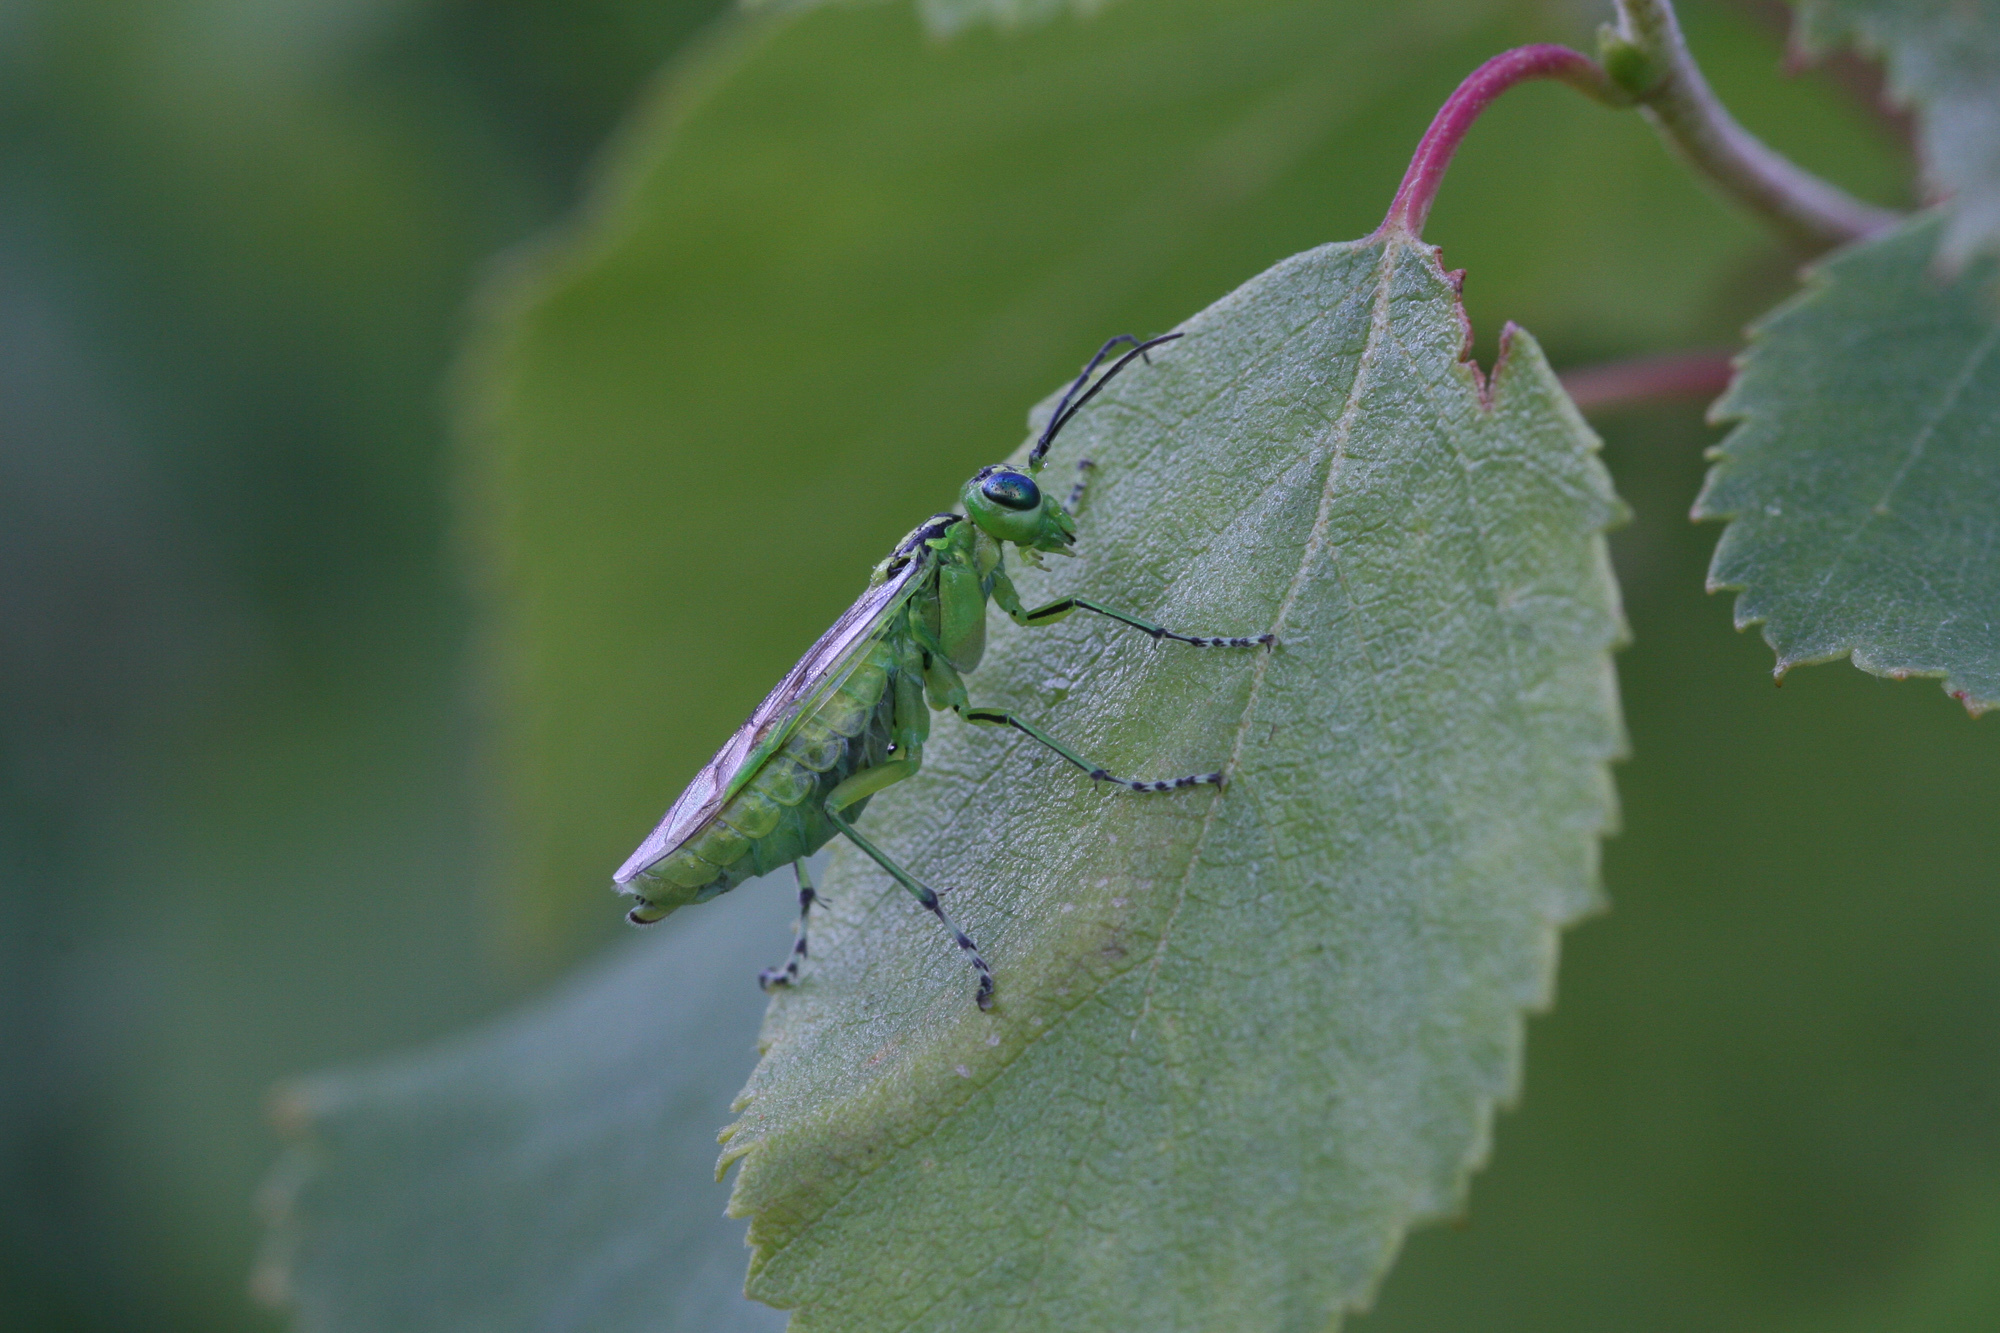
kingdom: Animalia
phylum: Arthropoda
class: Insecta
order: Hymenoptera
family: Tenthredinidae
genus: Rhogogaster
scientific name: Rhogogaster chlorosoma
